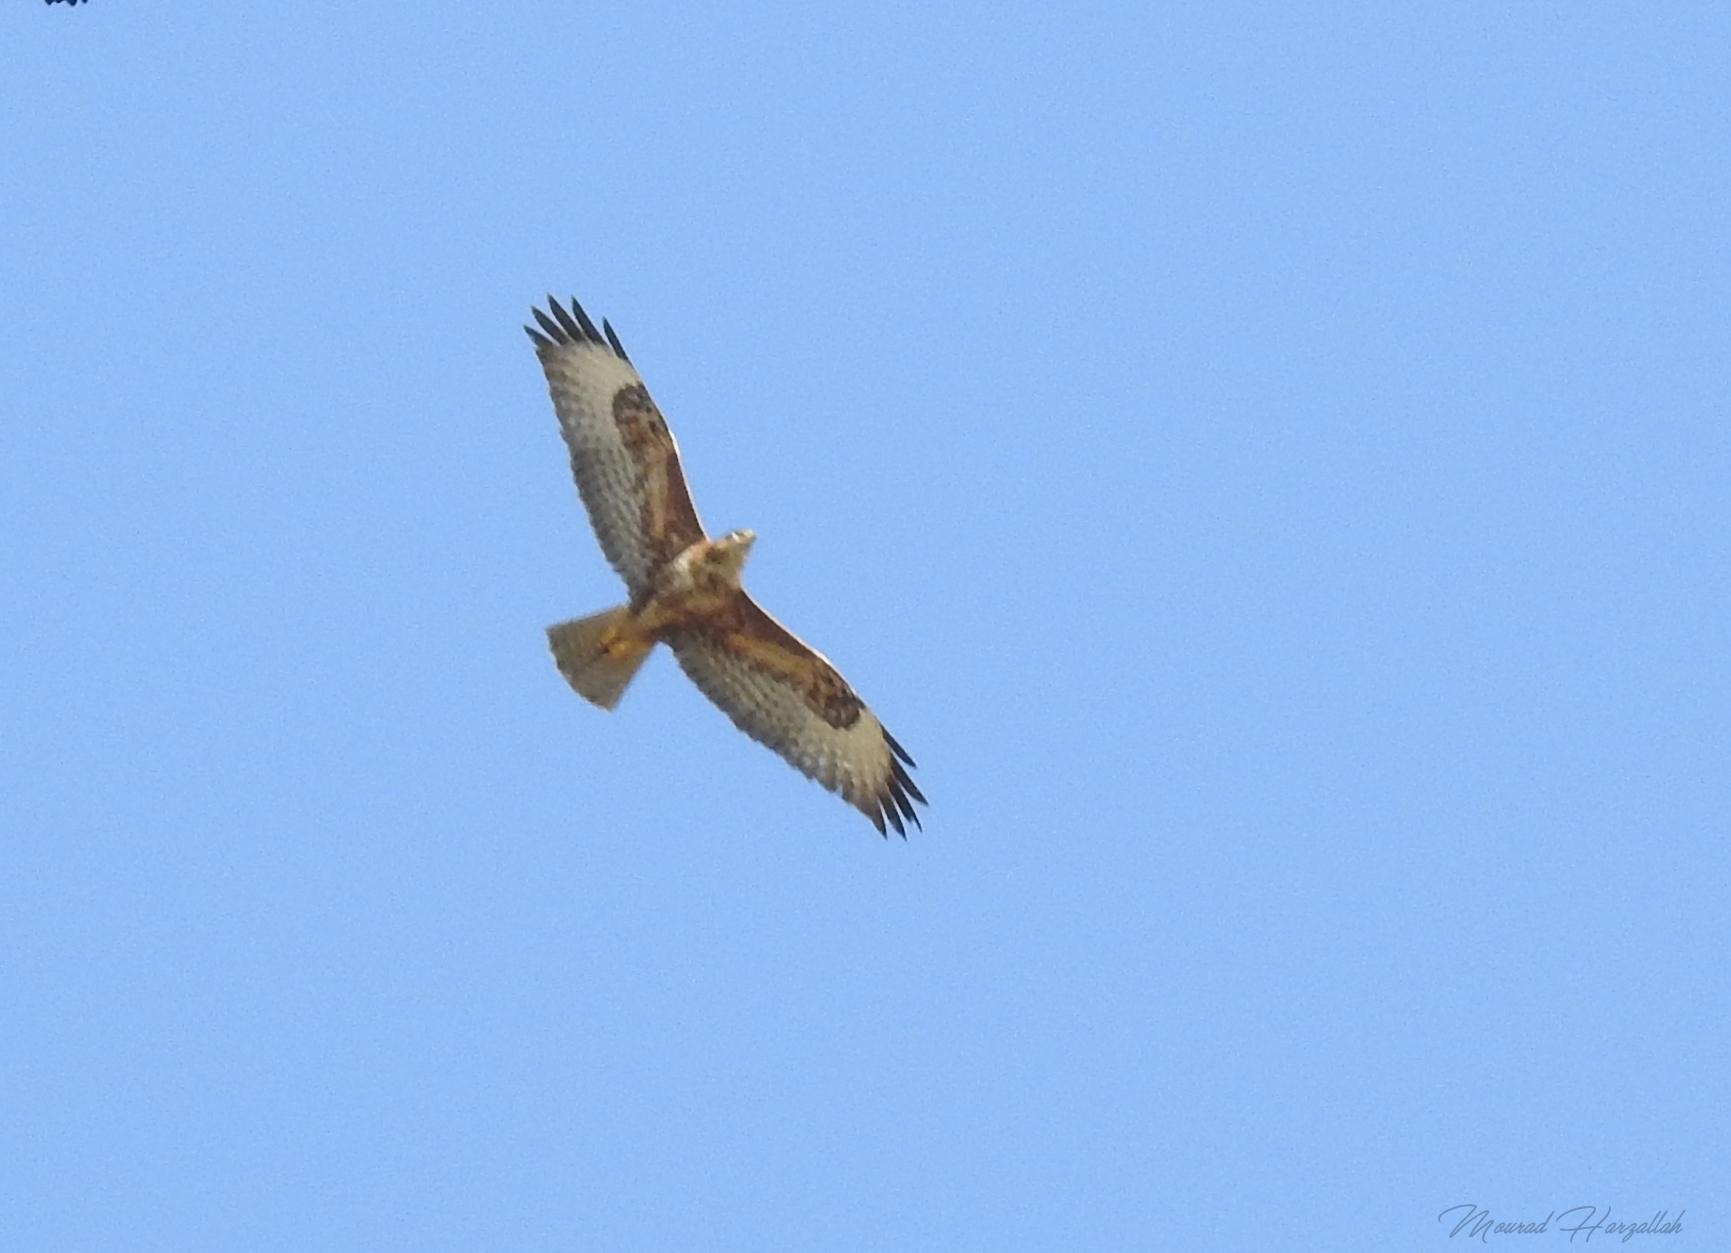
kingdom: Animalia
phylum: Chordata
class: Aves
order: Accipitriformes
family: Accipitridae
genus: Buteo
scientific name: Buteo rufinus
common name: Long-legged buzzard
